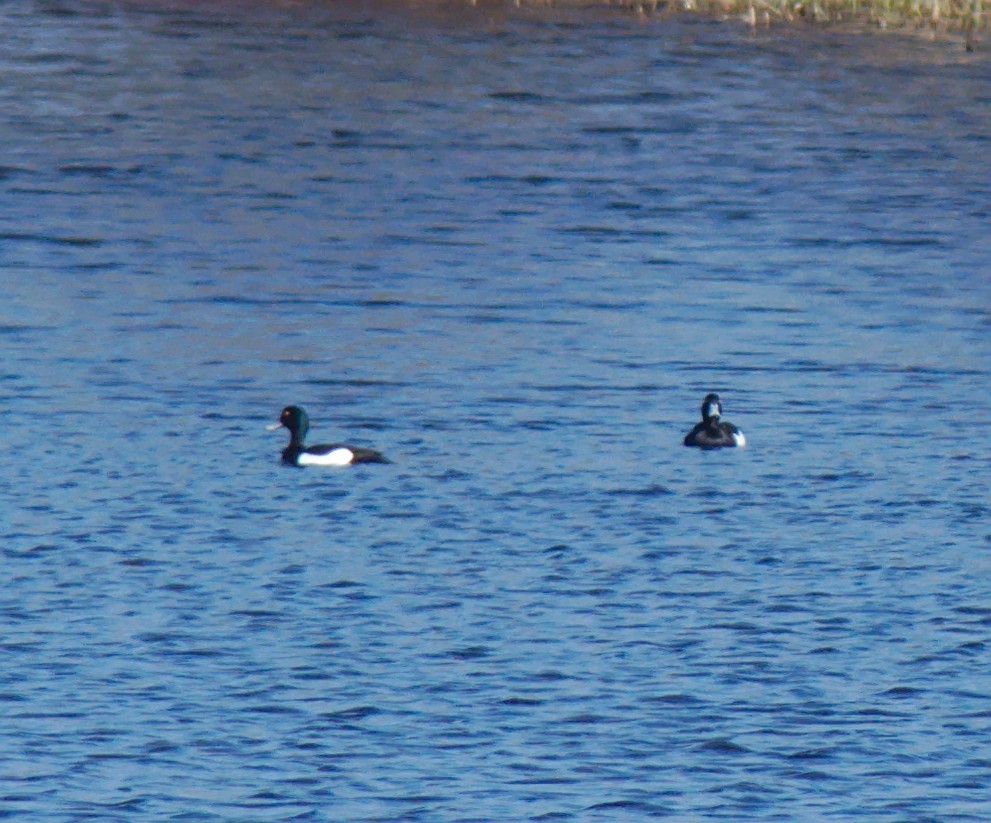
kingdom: Animalia
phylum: Chordata
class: Aves
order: Anseriformes
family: Anatidae
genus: Aythya
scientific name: Aythya fuligula
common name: Tufted duck
